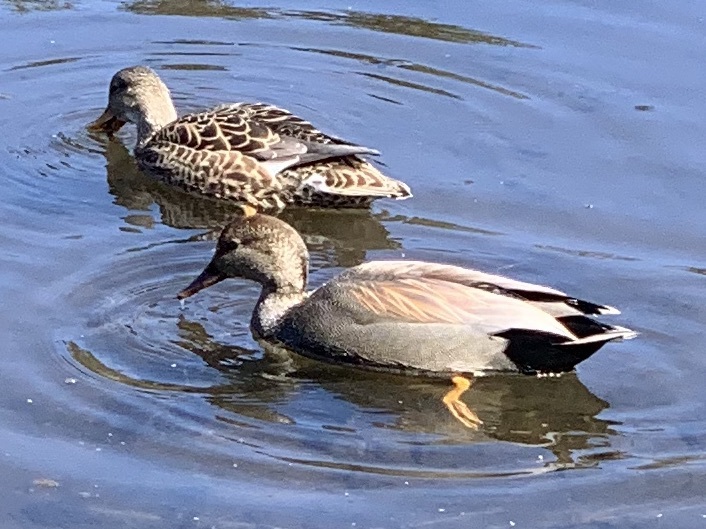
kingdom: Animalia
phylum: Chordata
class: Aves
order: Anseriformes
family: Anatidae
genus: Mareca
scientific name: Mareca strepera
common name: Gadwall
